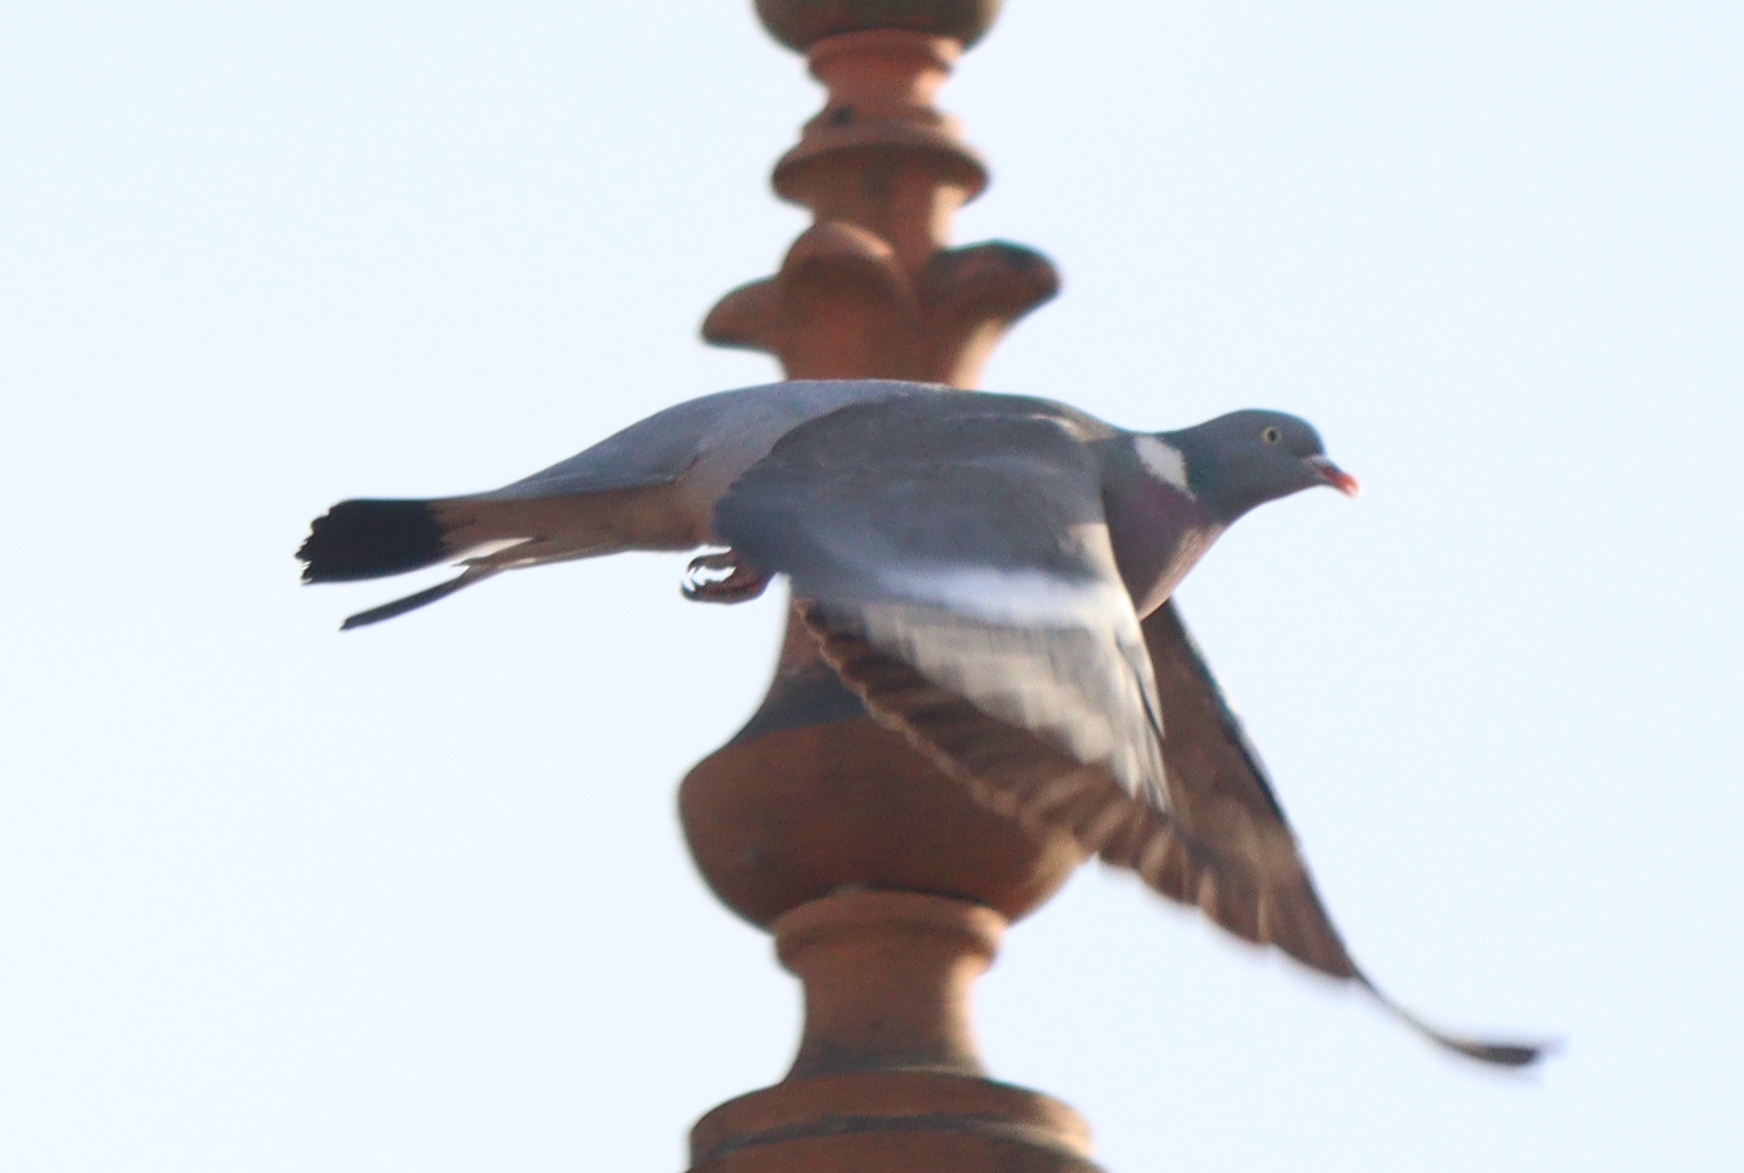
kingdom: Animalia
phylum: Chordata
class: Aves
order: Columbiformes
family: Columbidae
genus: Columba
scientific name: Columba palumbus
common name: Common wood pigeon
